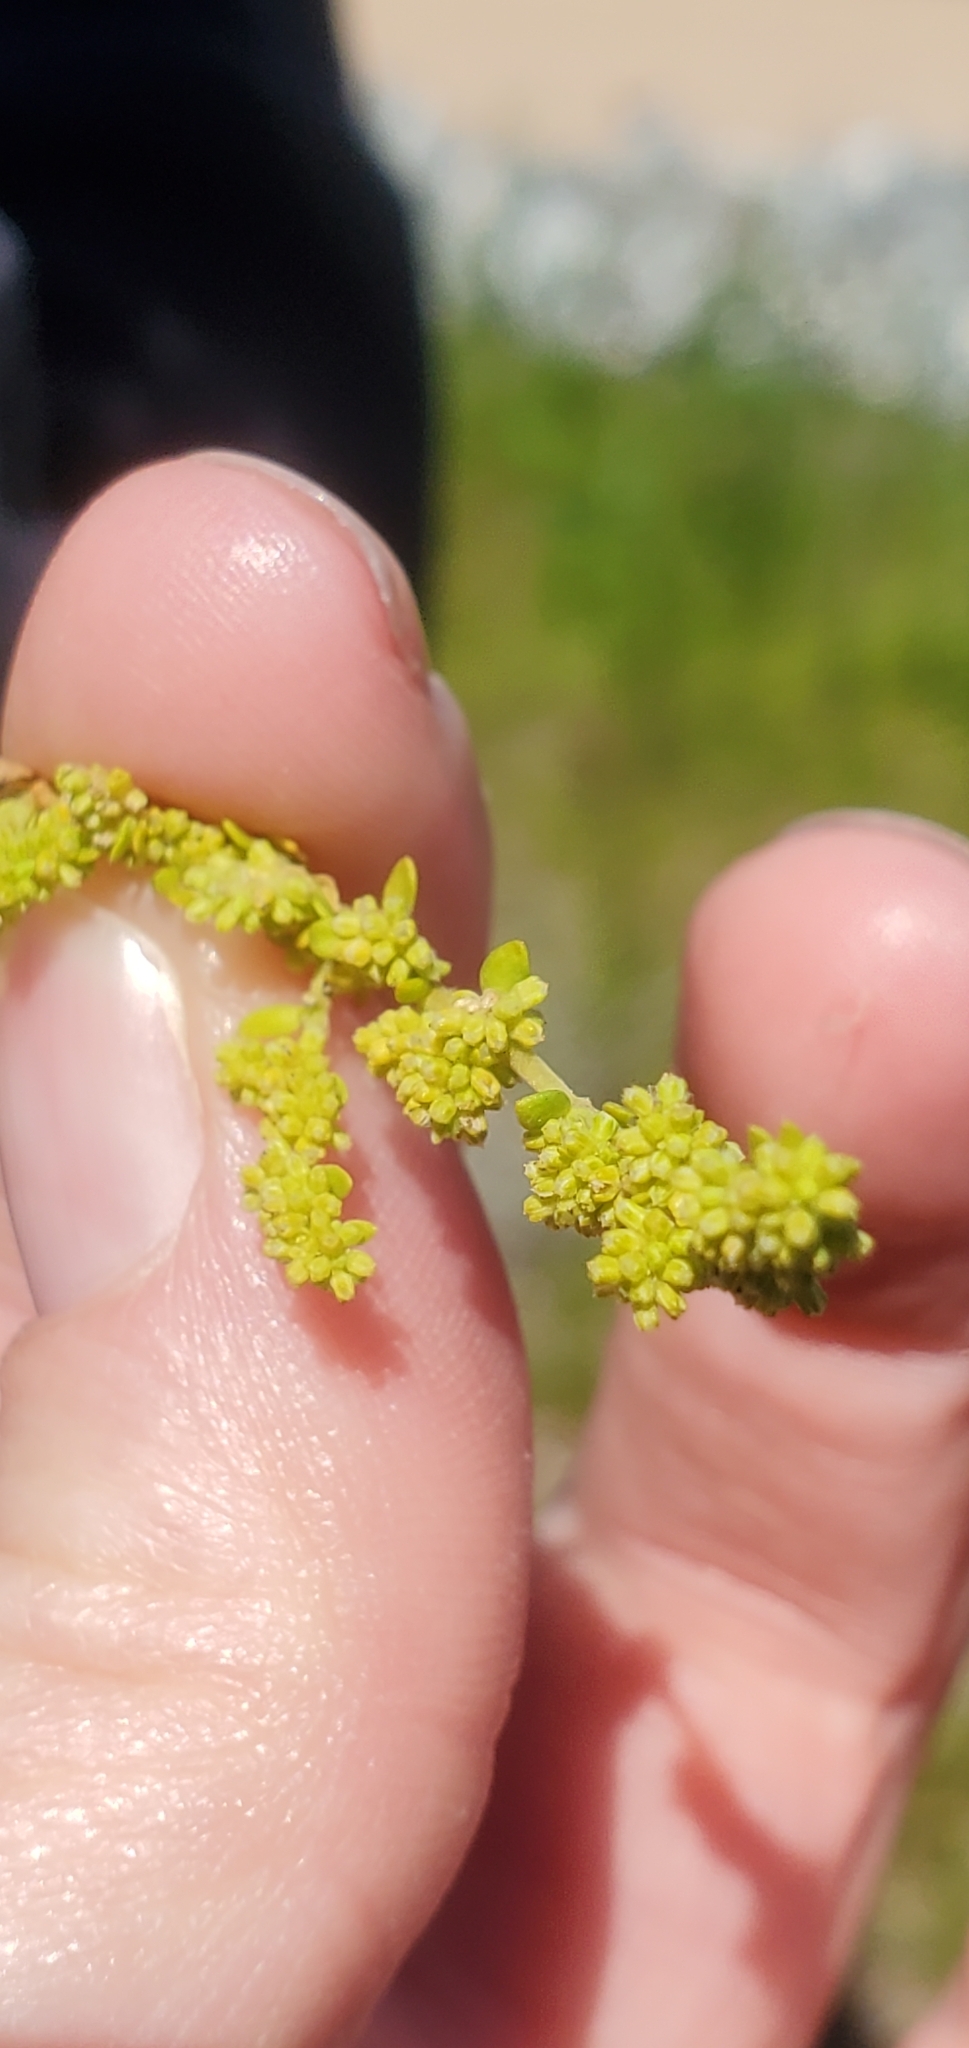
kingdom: Plantae
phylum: Tracheophyta
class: Magnoliopsida
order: Caryophyllales
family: Caryophyllaceae
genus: Herniaria
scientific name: Herniaria glabra
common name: Smooth rupturewort
